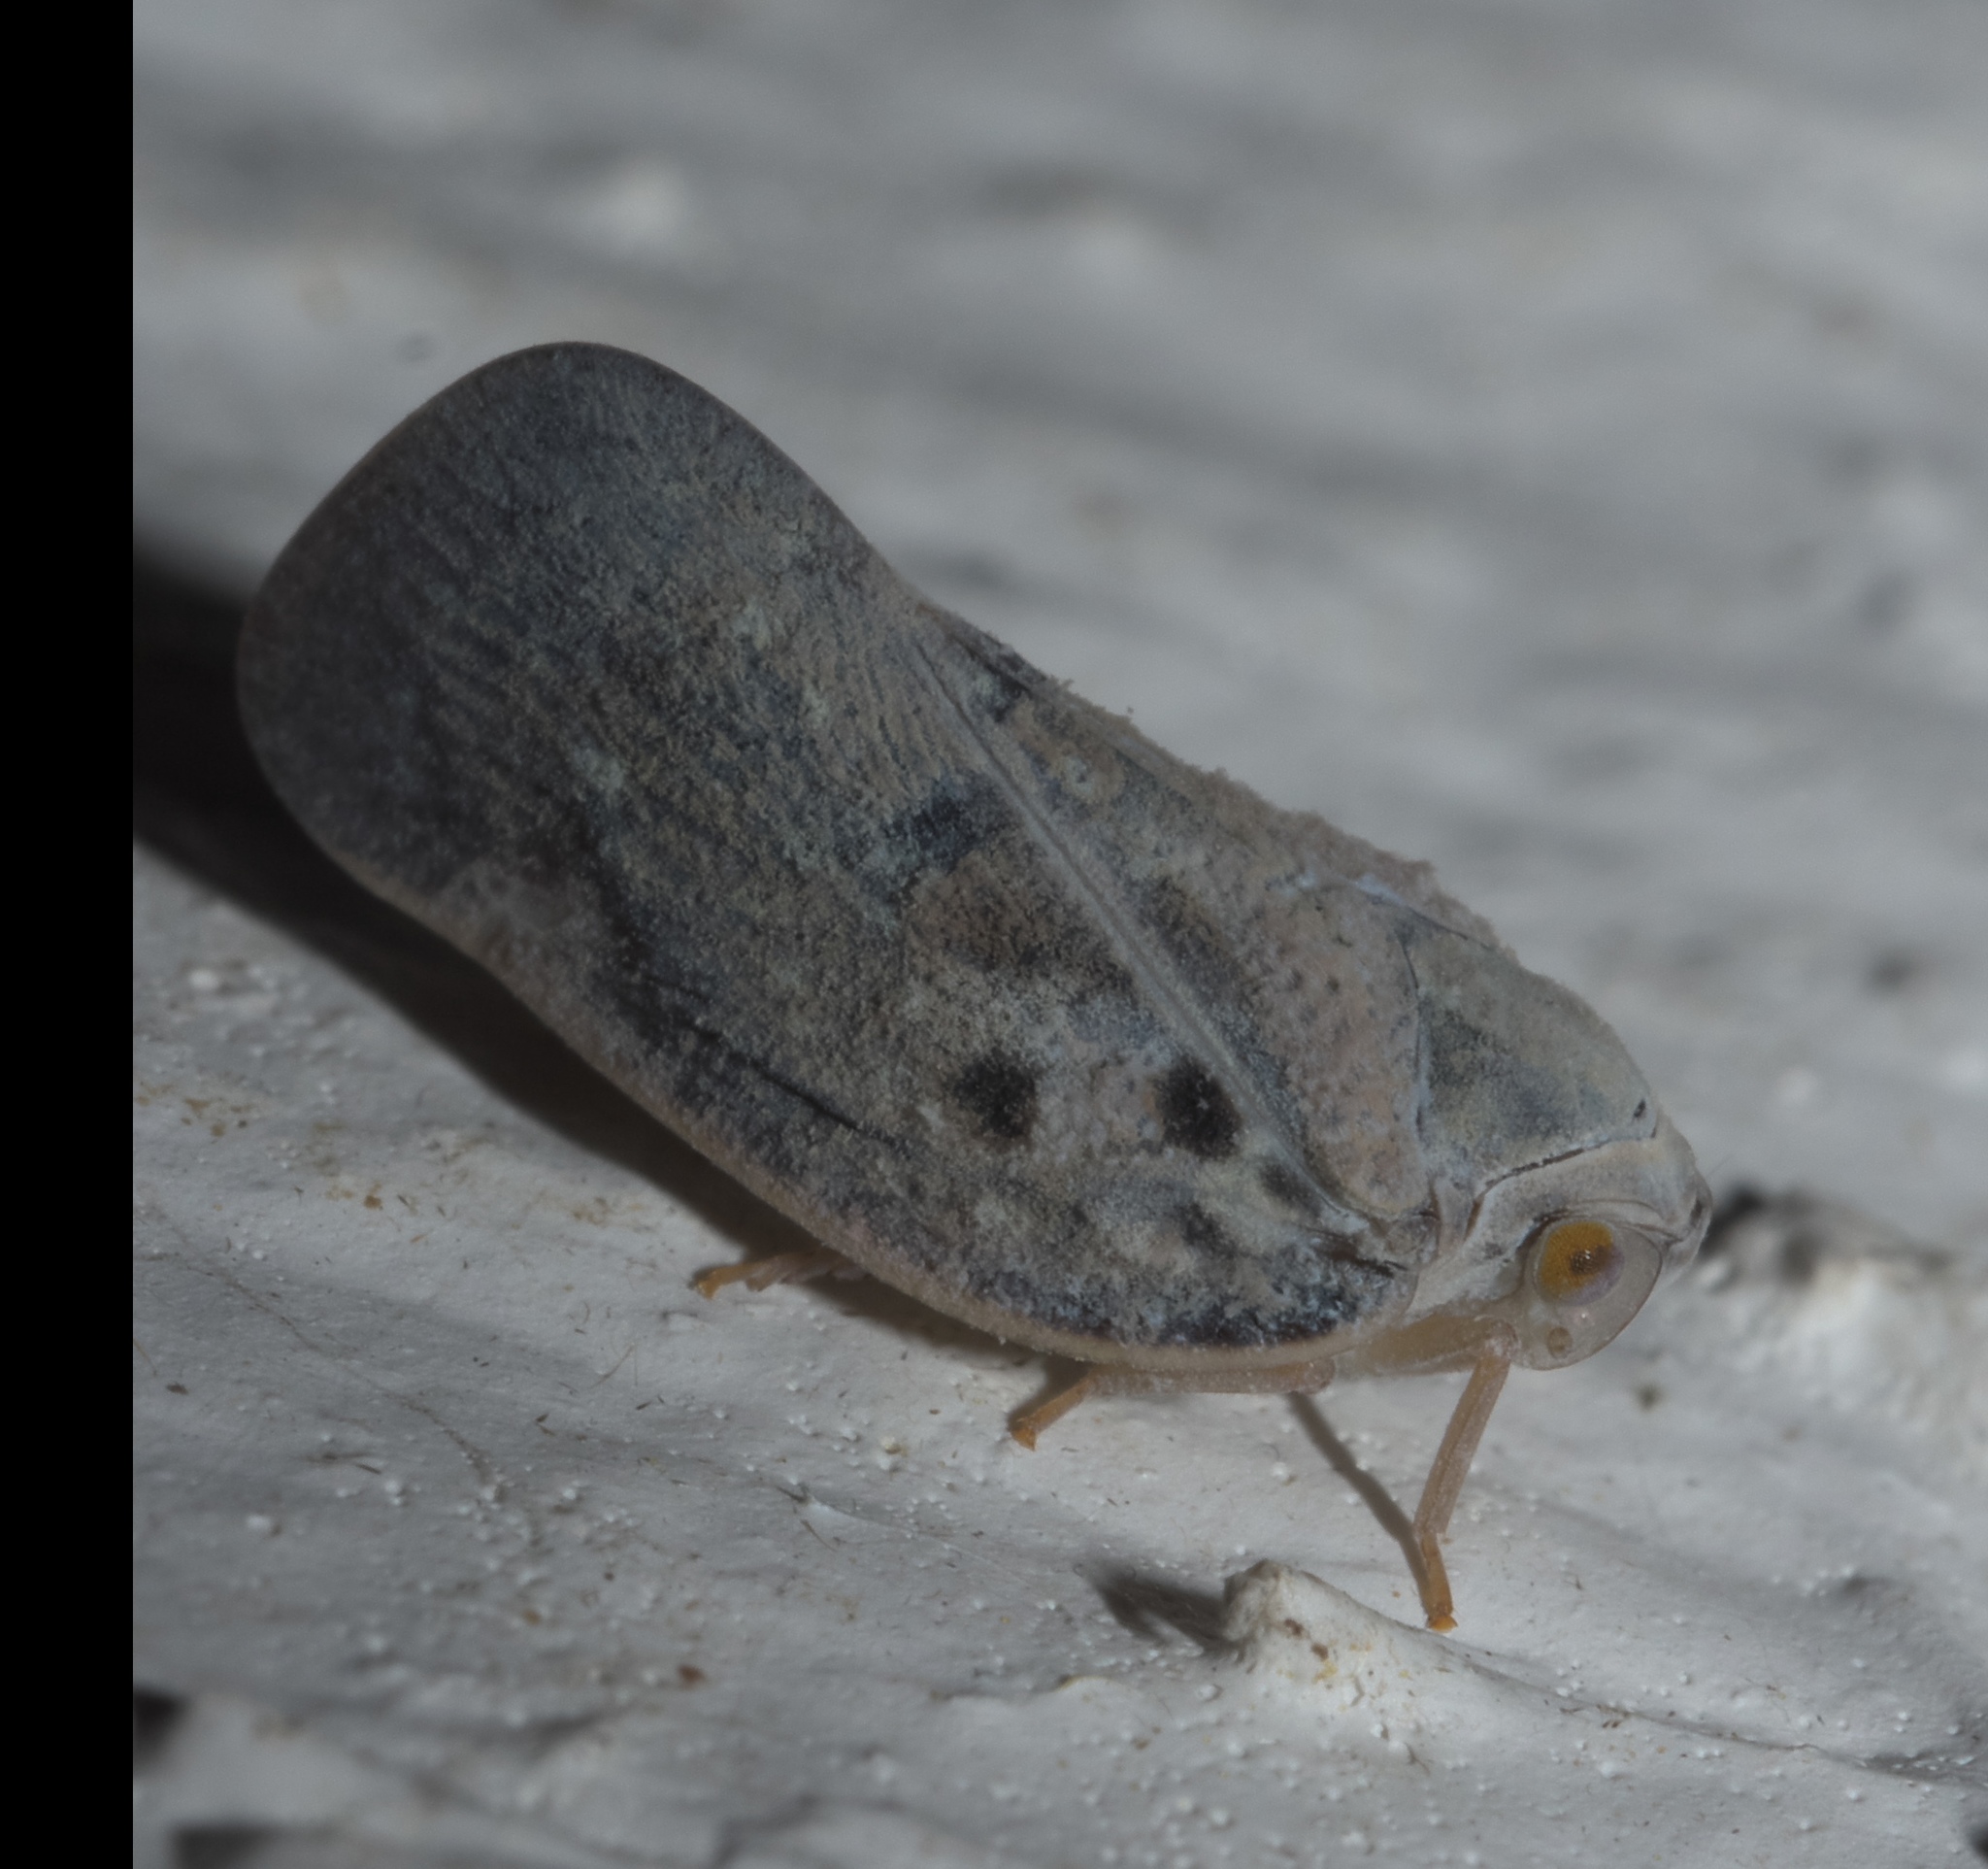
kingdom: Animalia
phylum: Arthropoda
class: Insecta
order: Hemiptera
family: Flatidae
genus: Metcalfa
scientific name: Metcalfa pruinosa
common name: Citrus flatid planthopper
